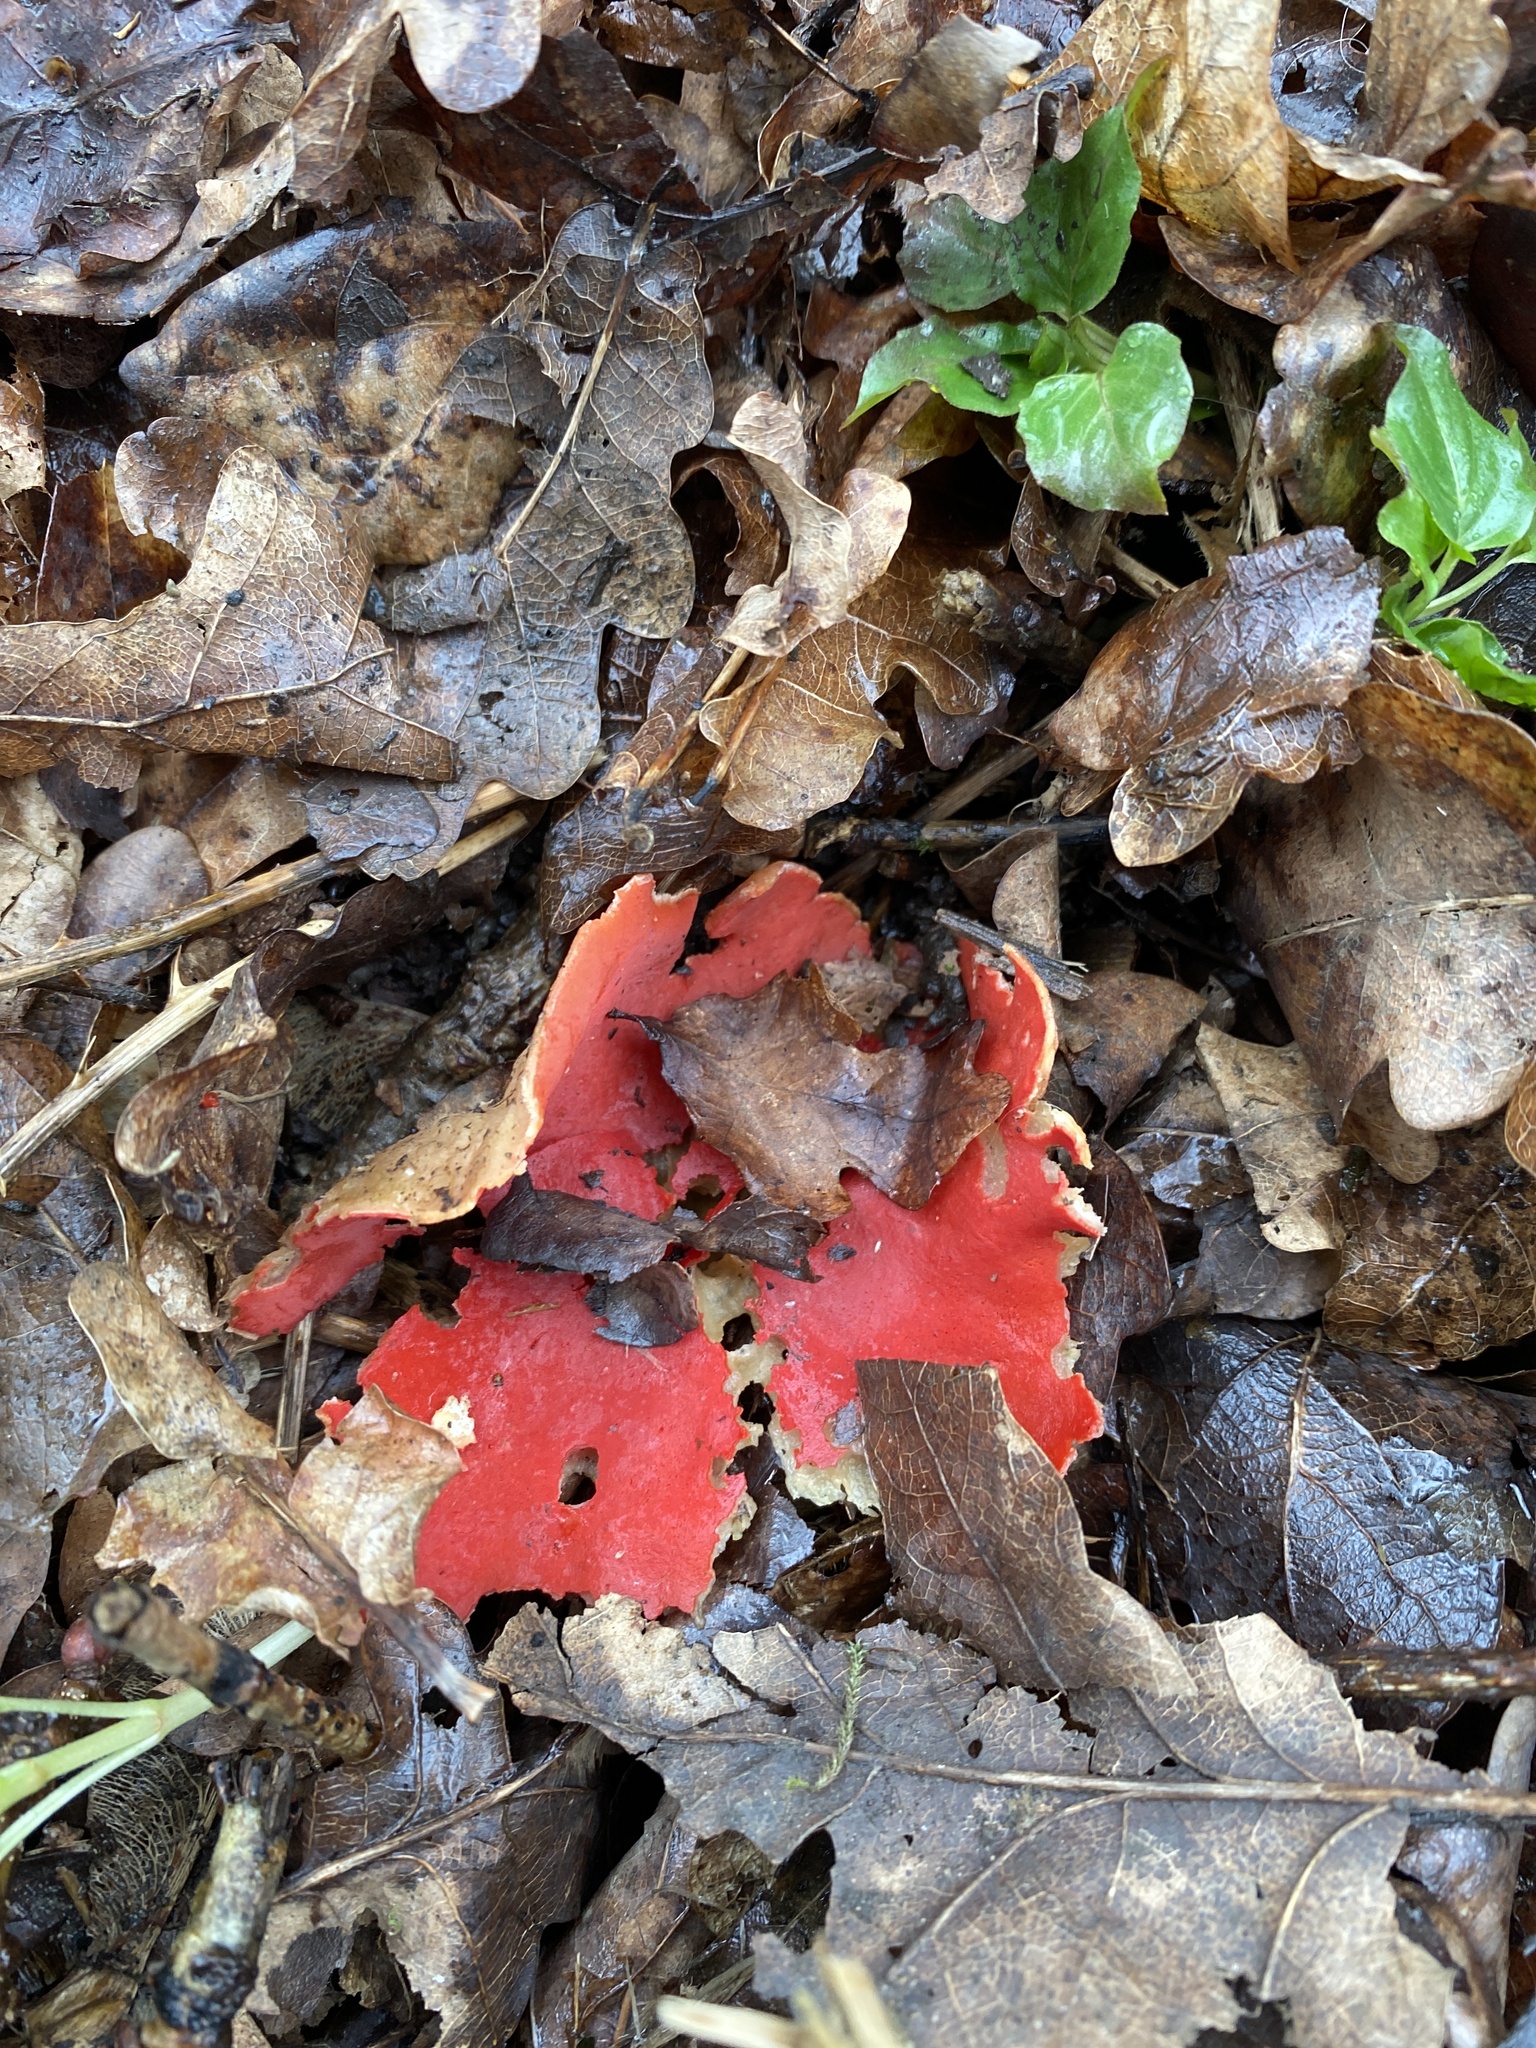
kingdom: Fungi
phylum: Ascomycota
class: Pezizomycetes
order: Pezizales
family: Sarcoscyphaceae
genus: Sarcoscypha
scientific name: Sarcoscypha
